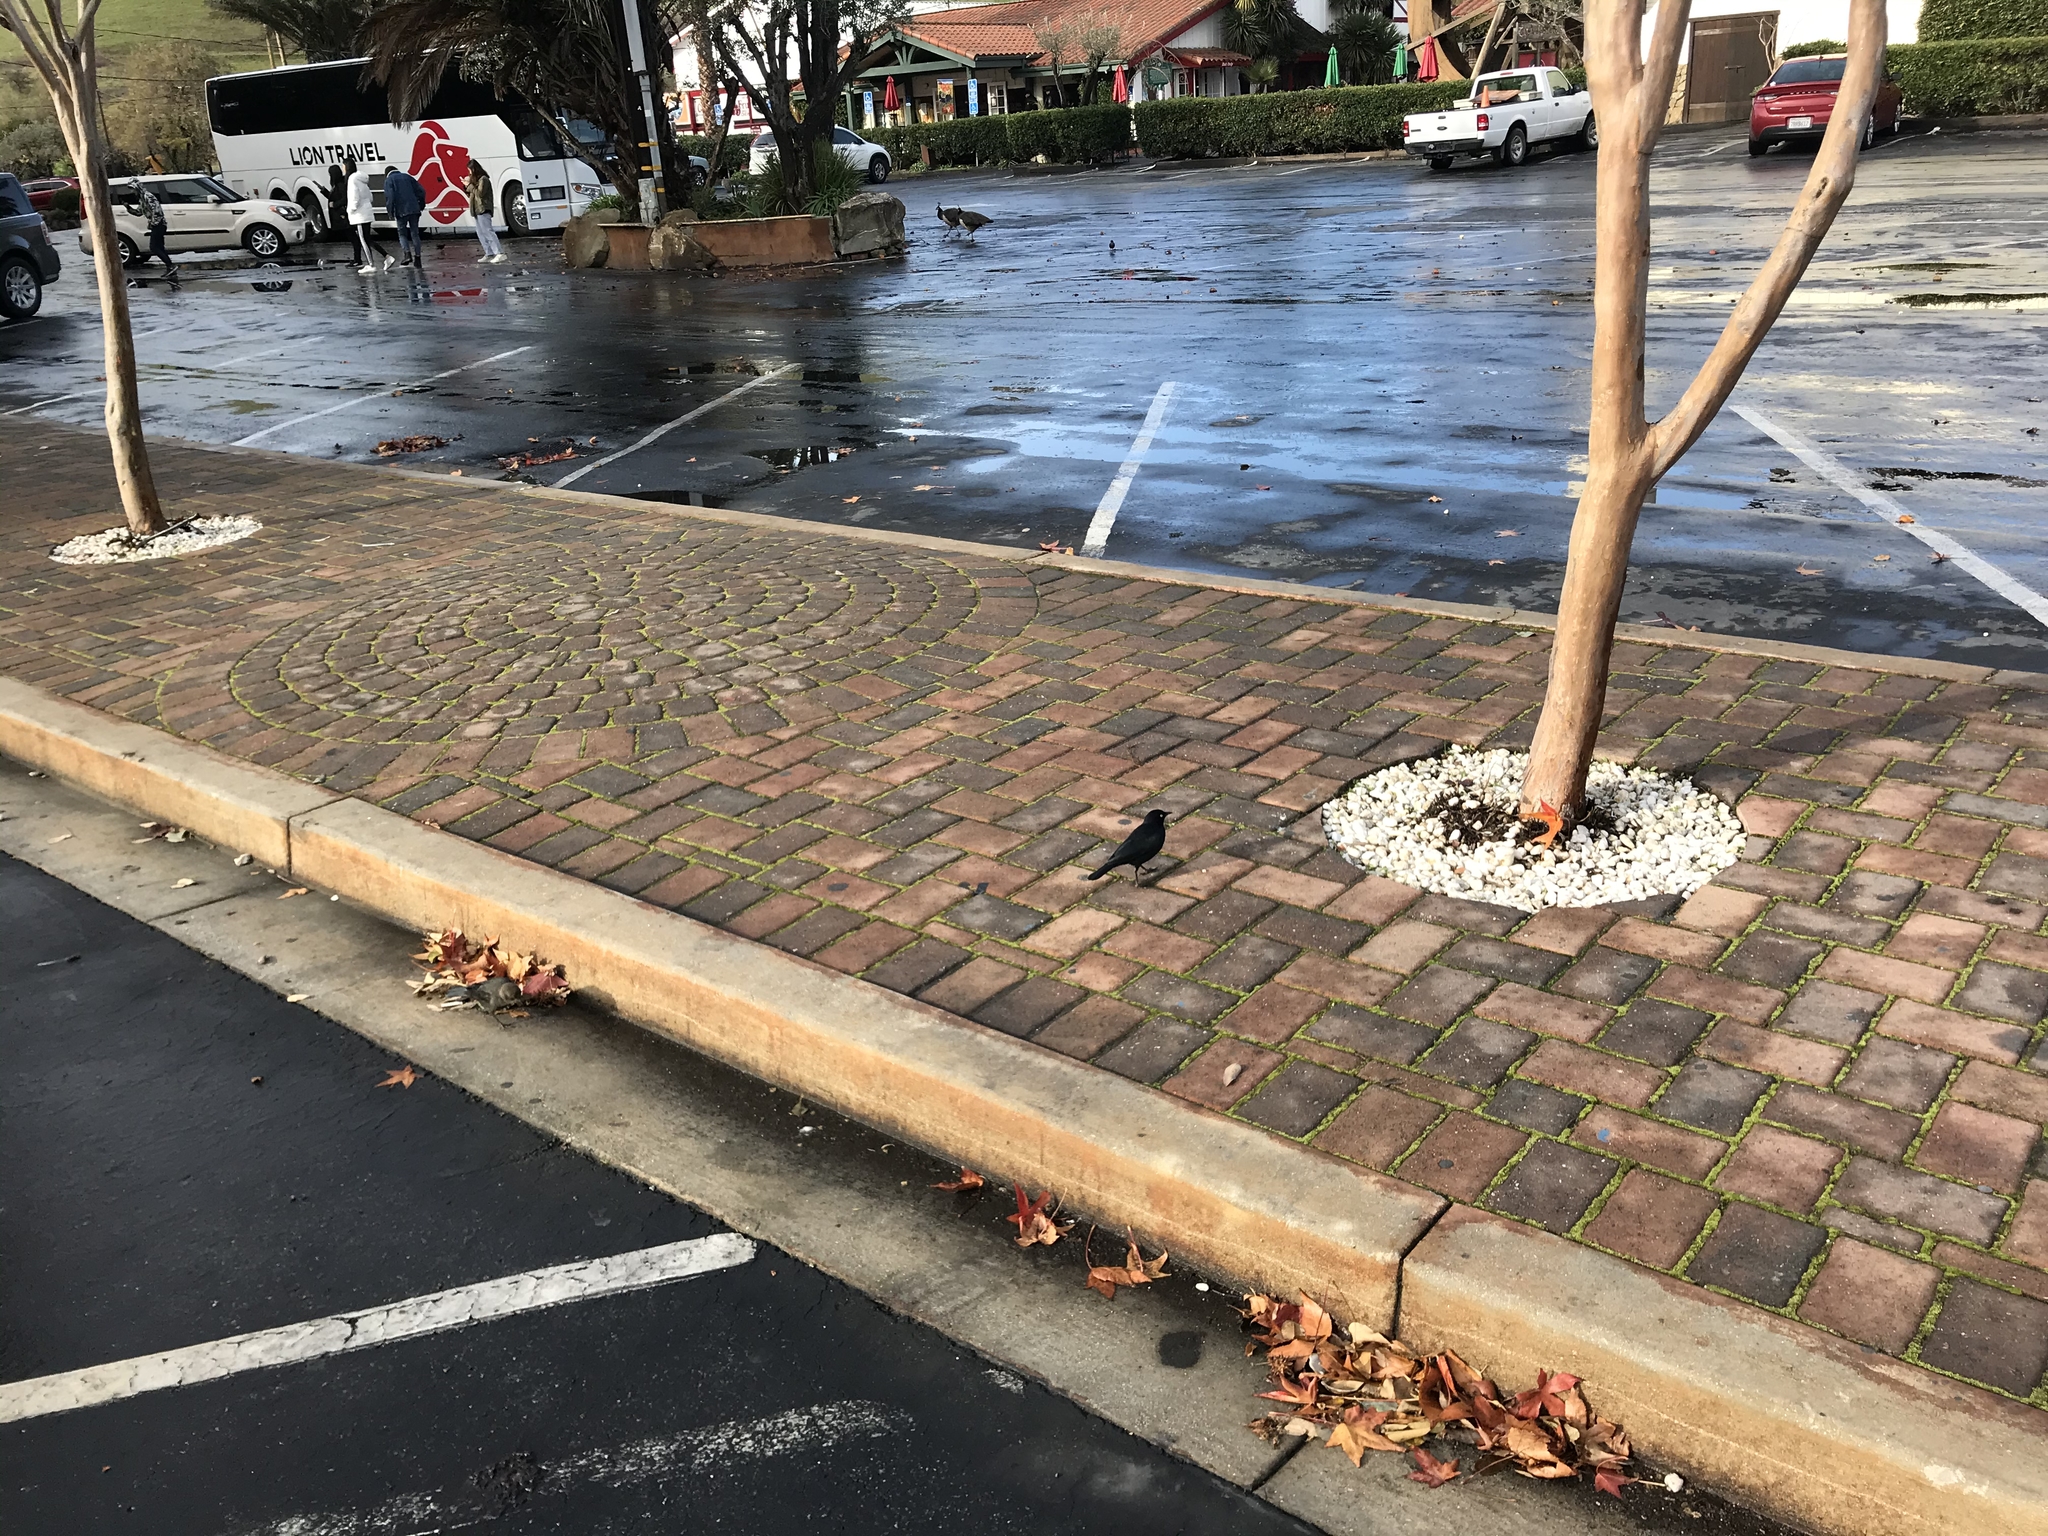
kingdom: Animalia
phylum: Chordata
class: Aves
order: Passeriformes
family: Icteridae
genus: Euphagus
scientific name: Euphagus cyanocephalus
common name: Brewer's blackbird
